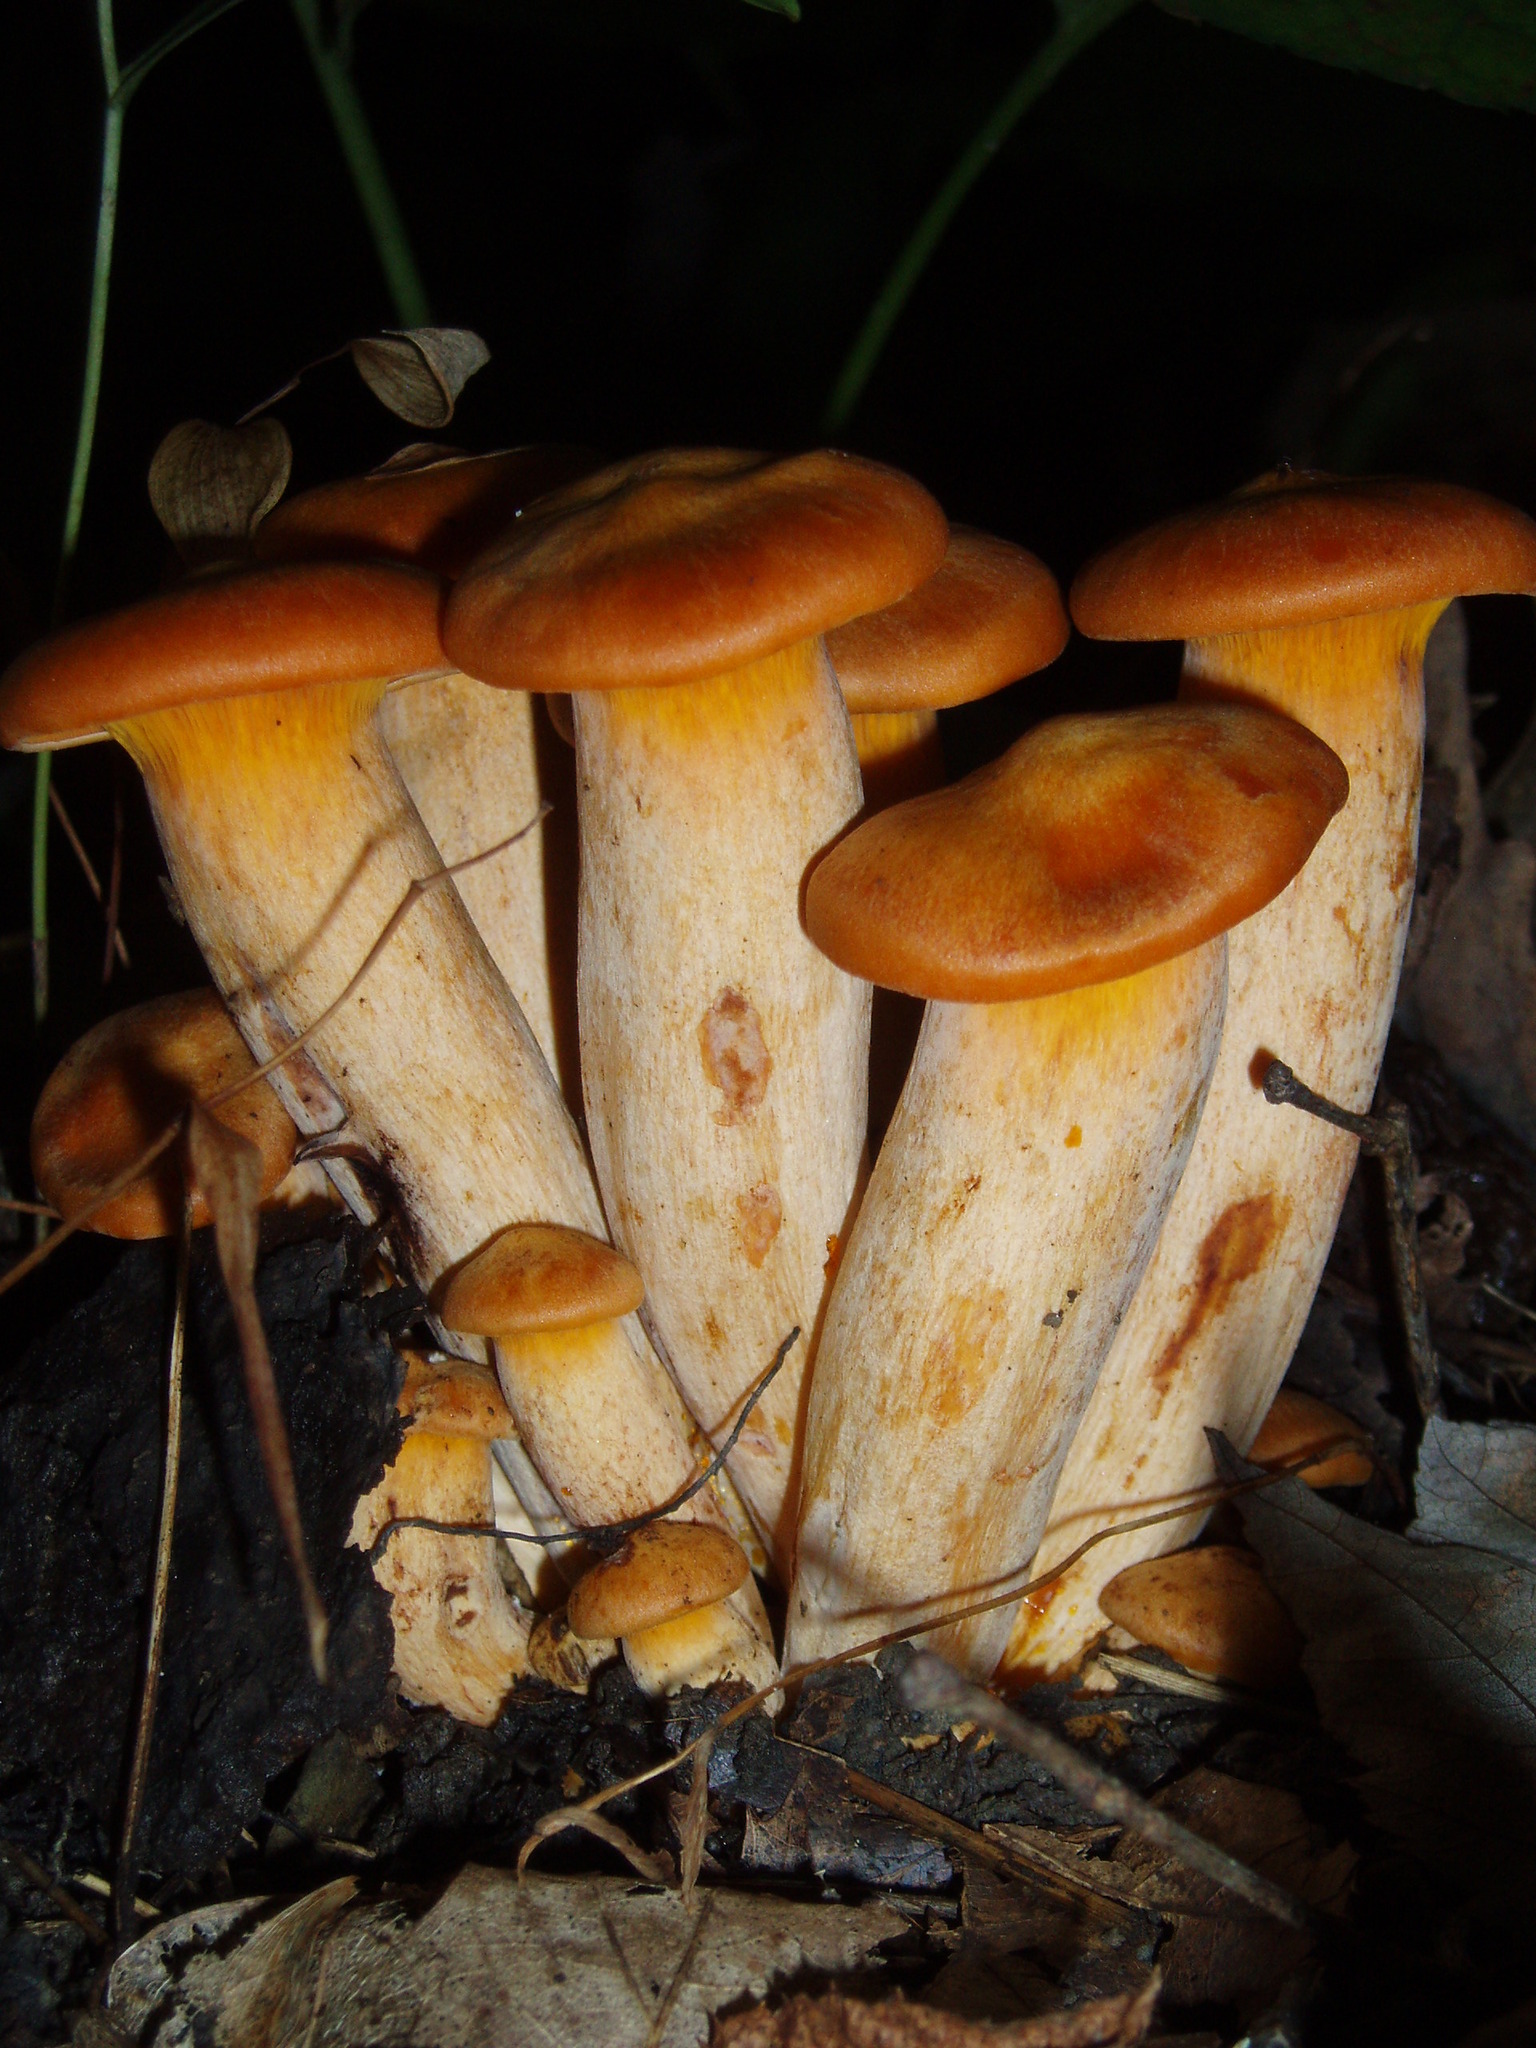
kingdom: Fungi
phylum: Basidiomycota
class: Agaricomycetes
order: Agaricales
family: Omphalotaceae
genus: Omphalotus
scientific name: Omphalotus illudens
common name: Jack o lantern
